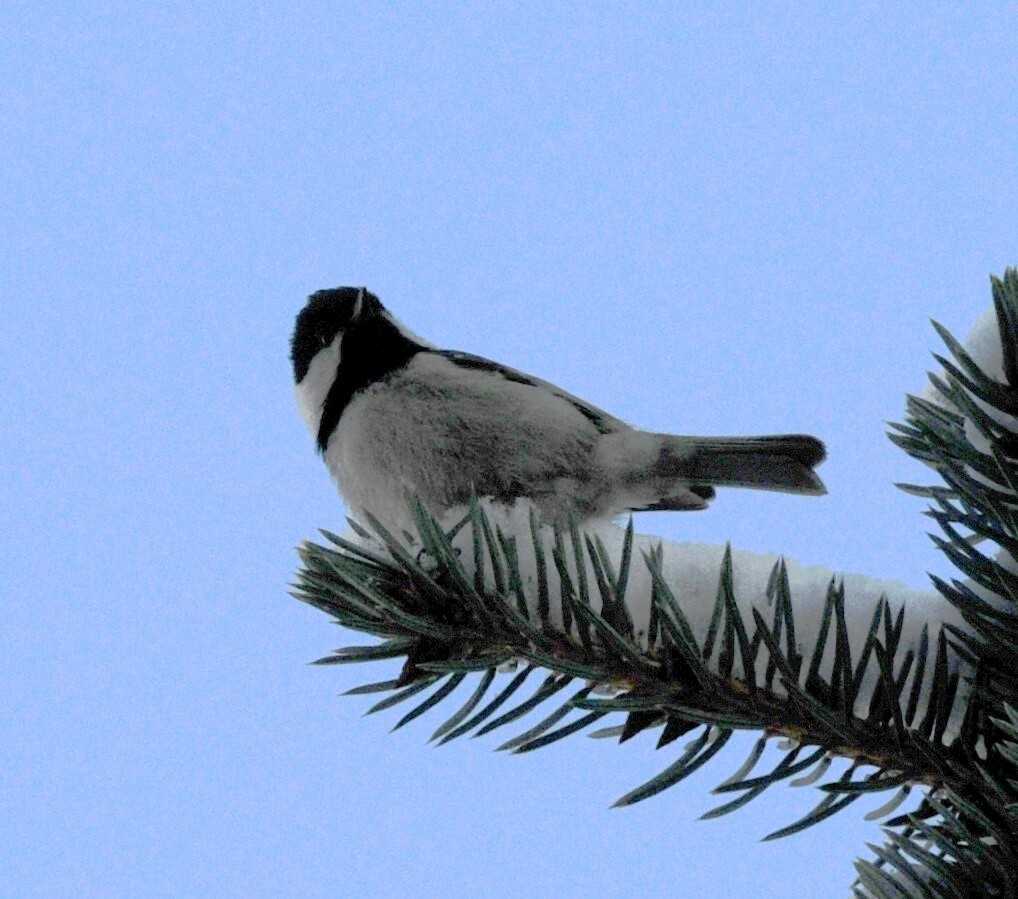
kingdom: Animalia
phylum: Chordata
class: Aves
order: Passeriformes
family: Paridae
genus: Periparus
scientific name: Periparus ater
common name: Coal tit
